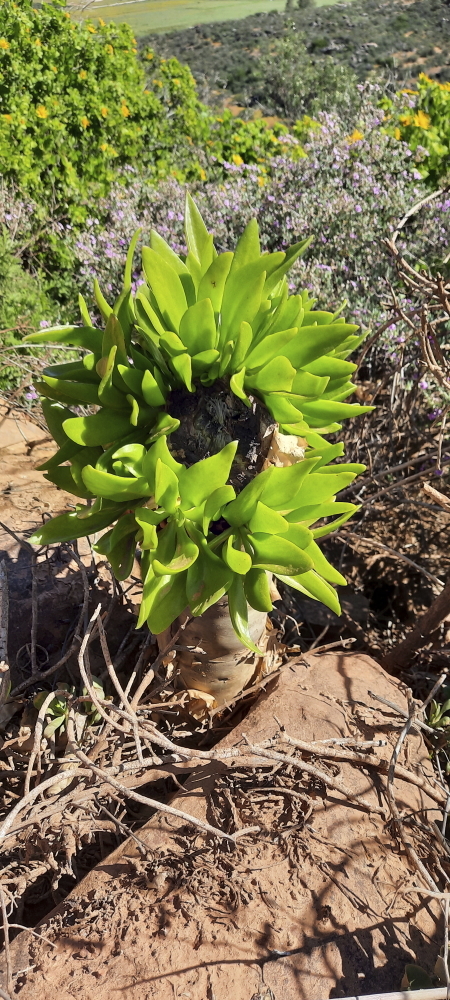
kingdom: Plantae
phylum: Tracheophyta
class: Magnoliopsida
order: Saxifragales
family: Crassulaceae
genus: Tylecodon
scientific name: Tylecodon paniculatus
